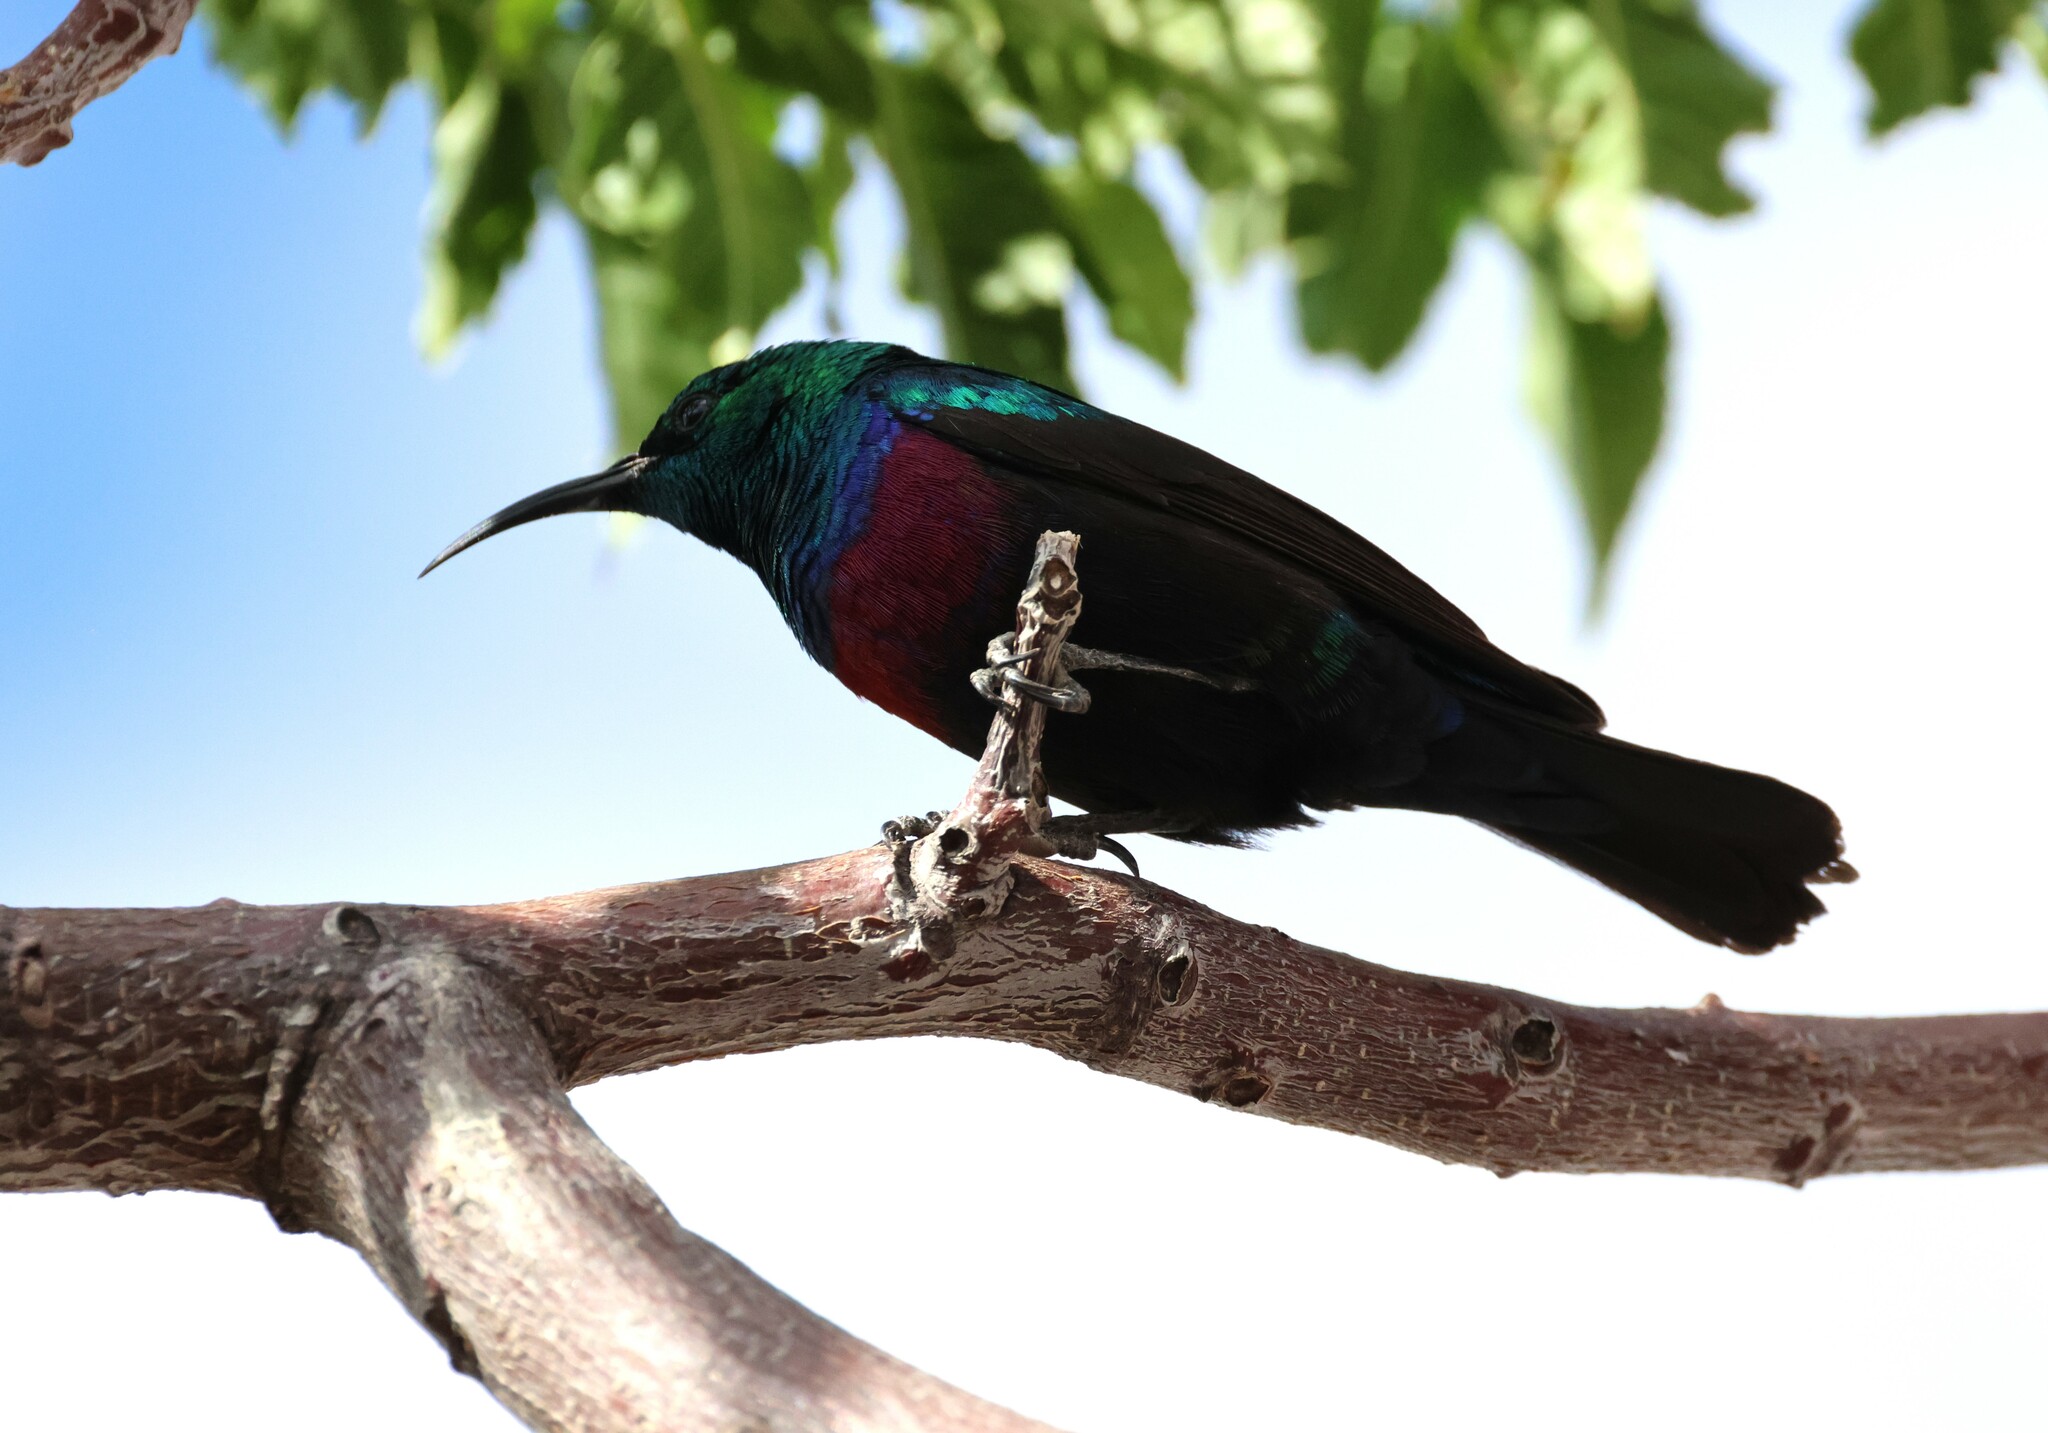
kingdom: Animalia
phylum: Chordata
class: Aves
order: Passeriformes
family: Nectariniidae
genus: Cinnyris
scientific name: Cinnyris mariquensis
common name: Marico sunbird
